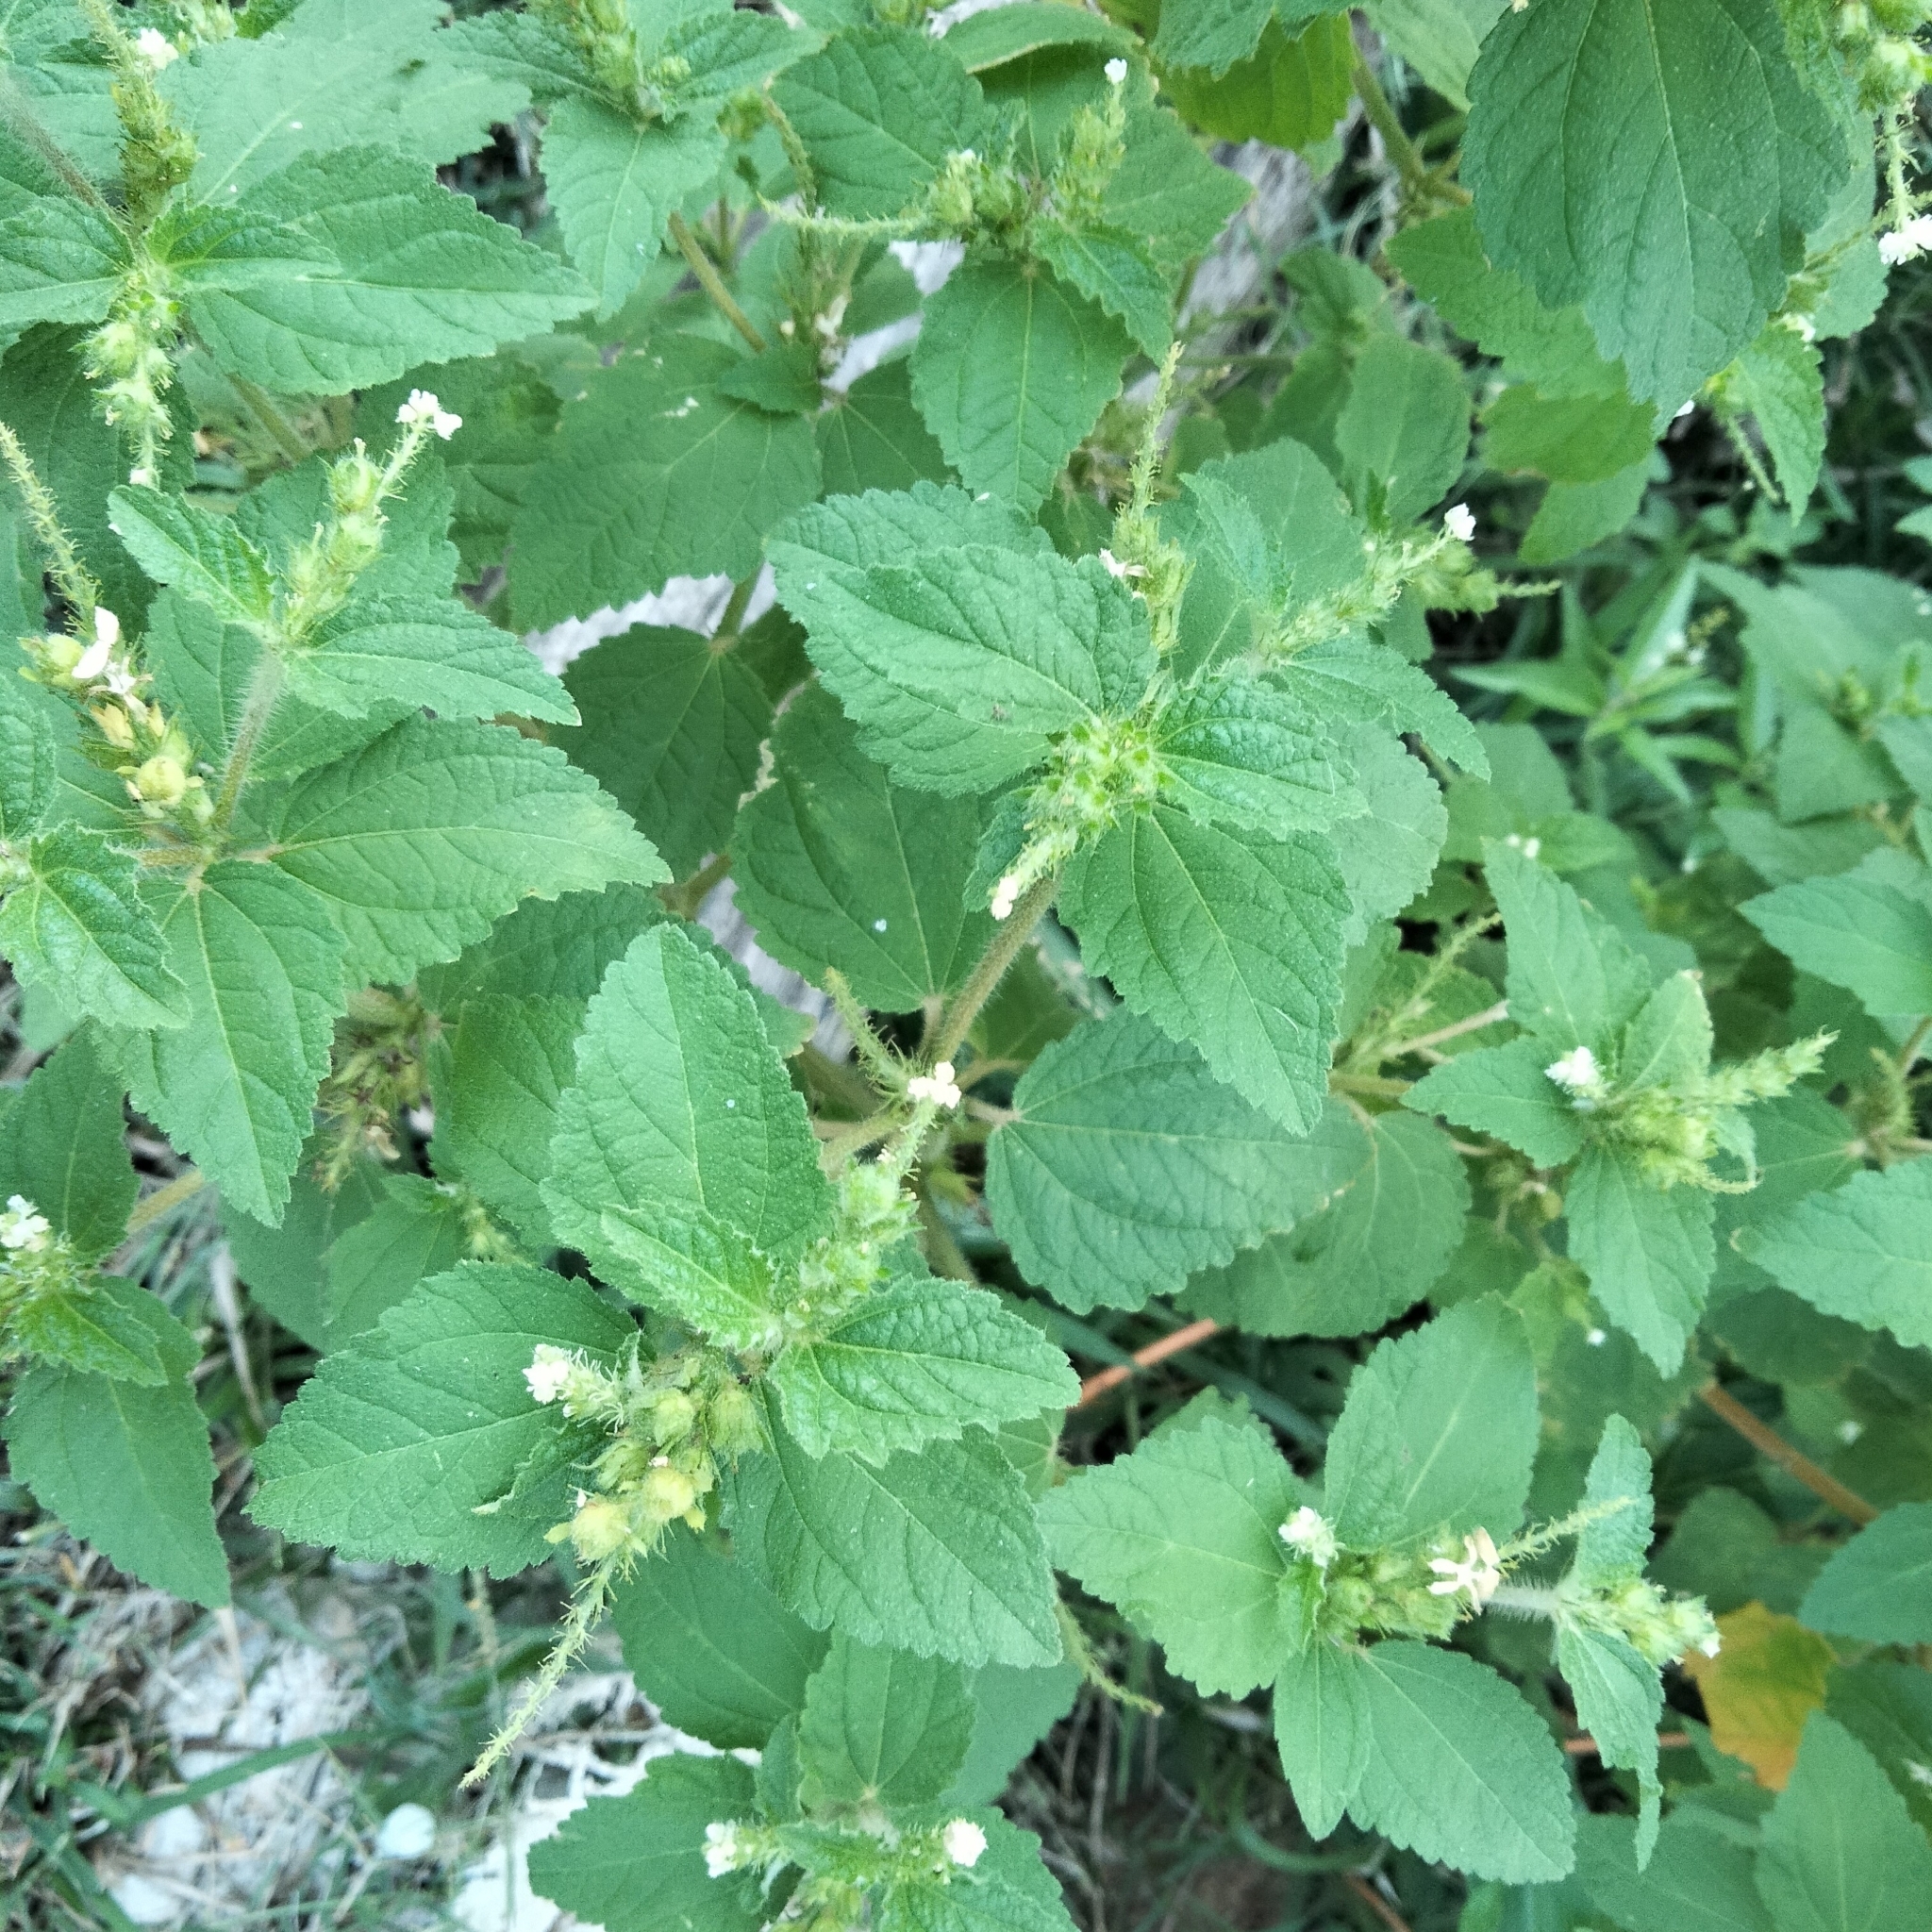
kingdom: Plantae
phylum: Tracheophyta
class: Magnoliopsida
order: Malpighiales
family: Euphorbiaceae
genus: Croton
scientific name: Croton hirtus
